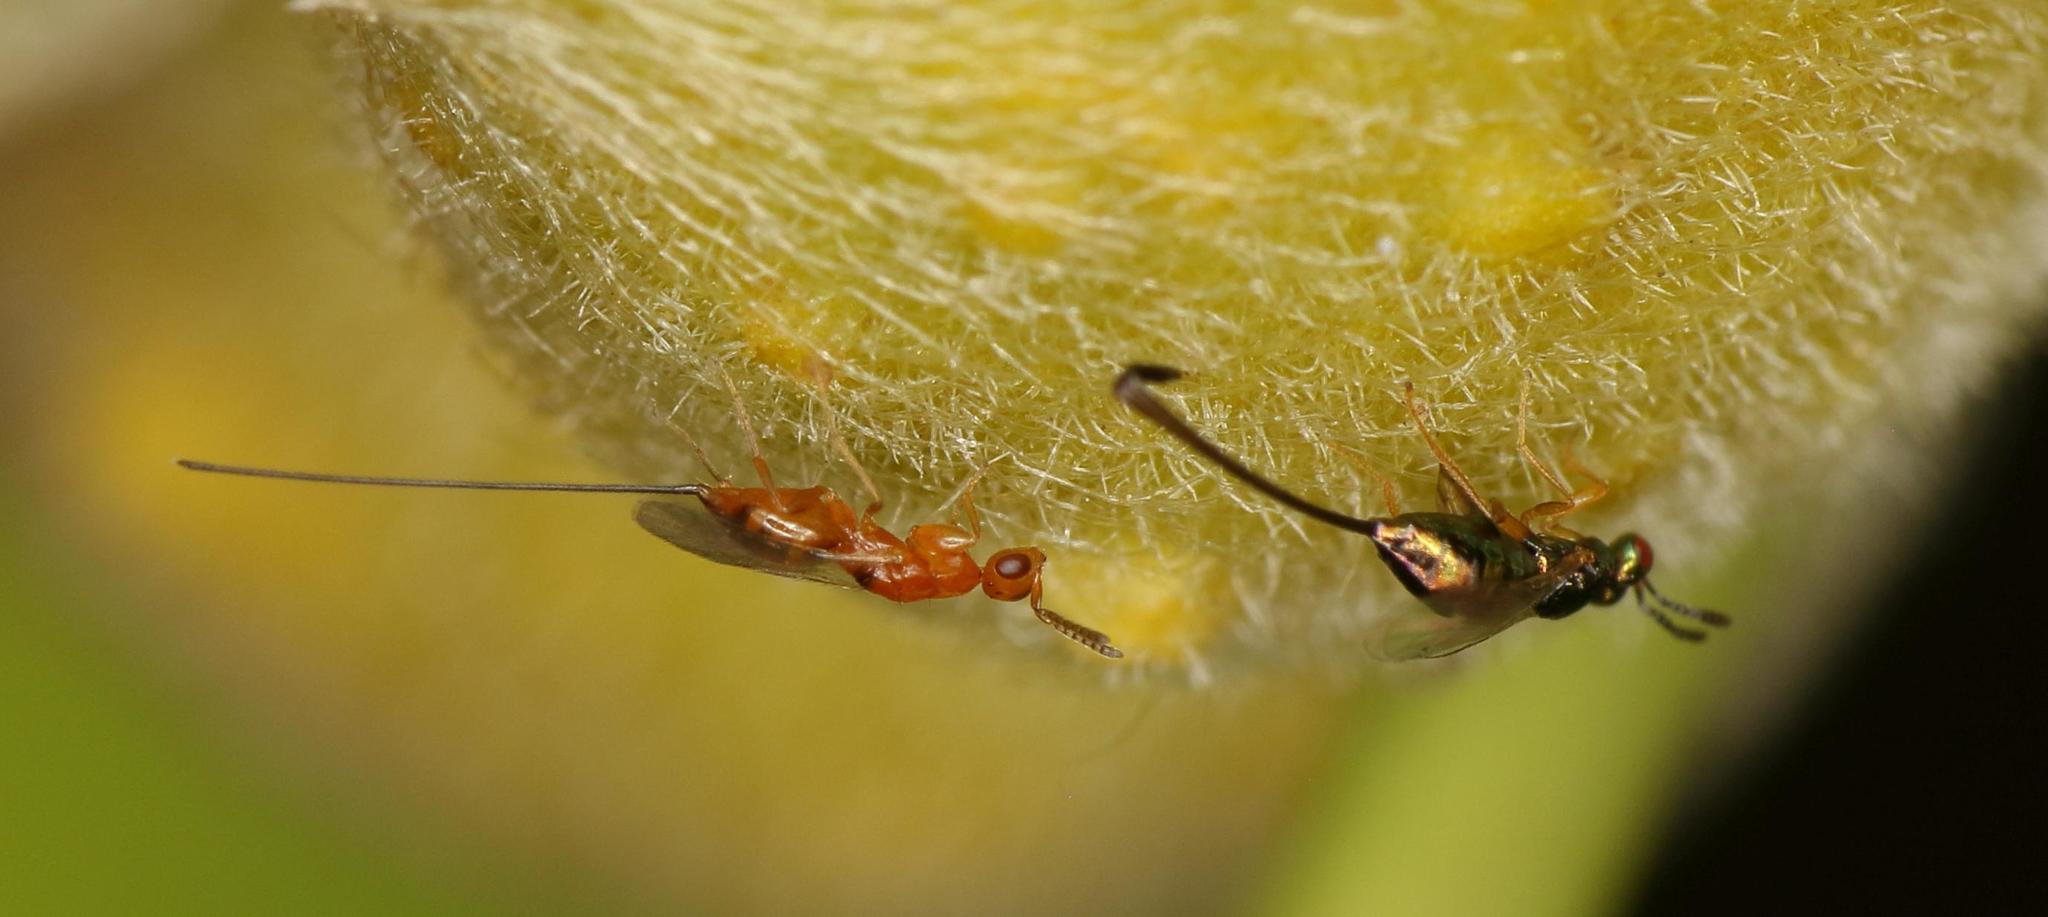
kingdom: Animalia
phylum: Arthropoda
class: Insecta
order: Hymenoptera
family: Agaonidae
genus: Watshamiella
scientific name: Watshamiella alata
